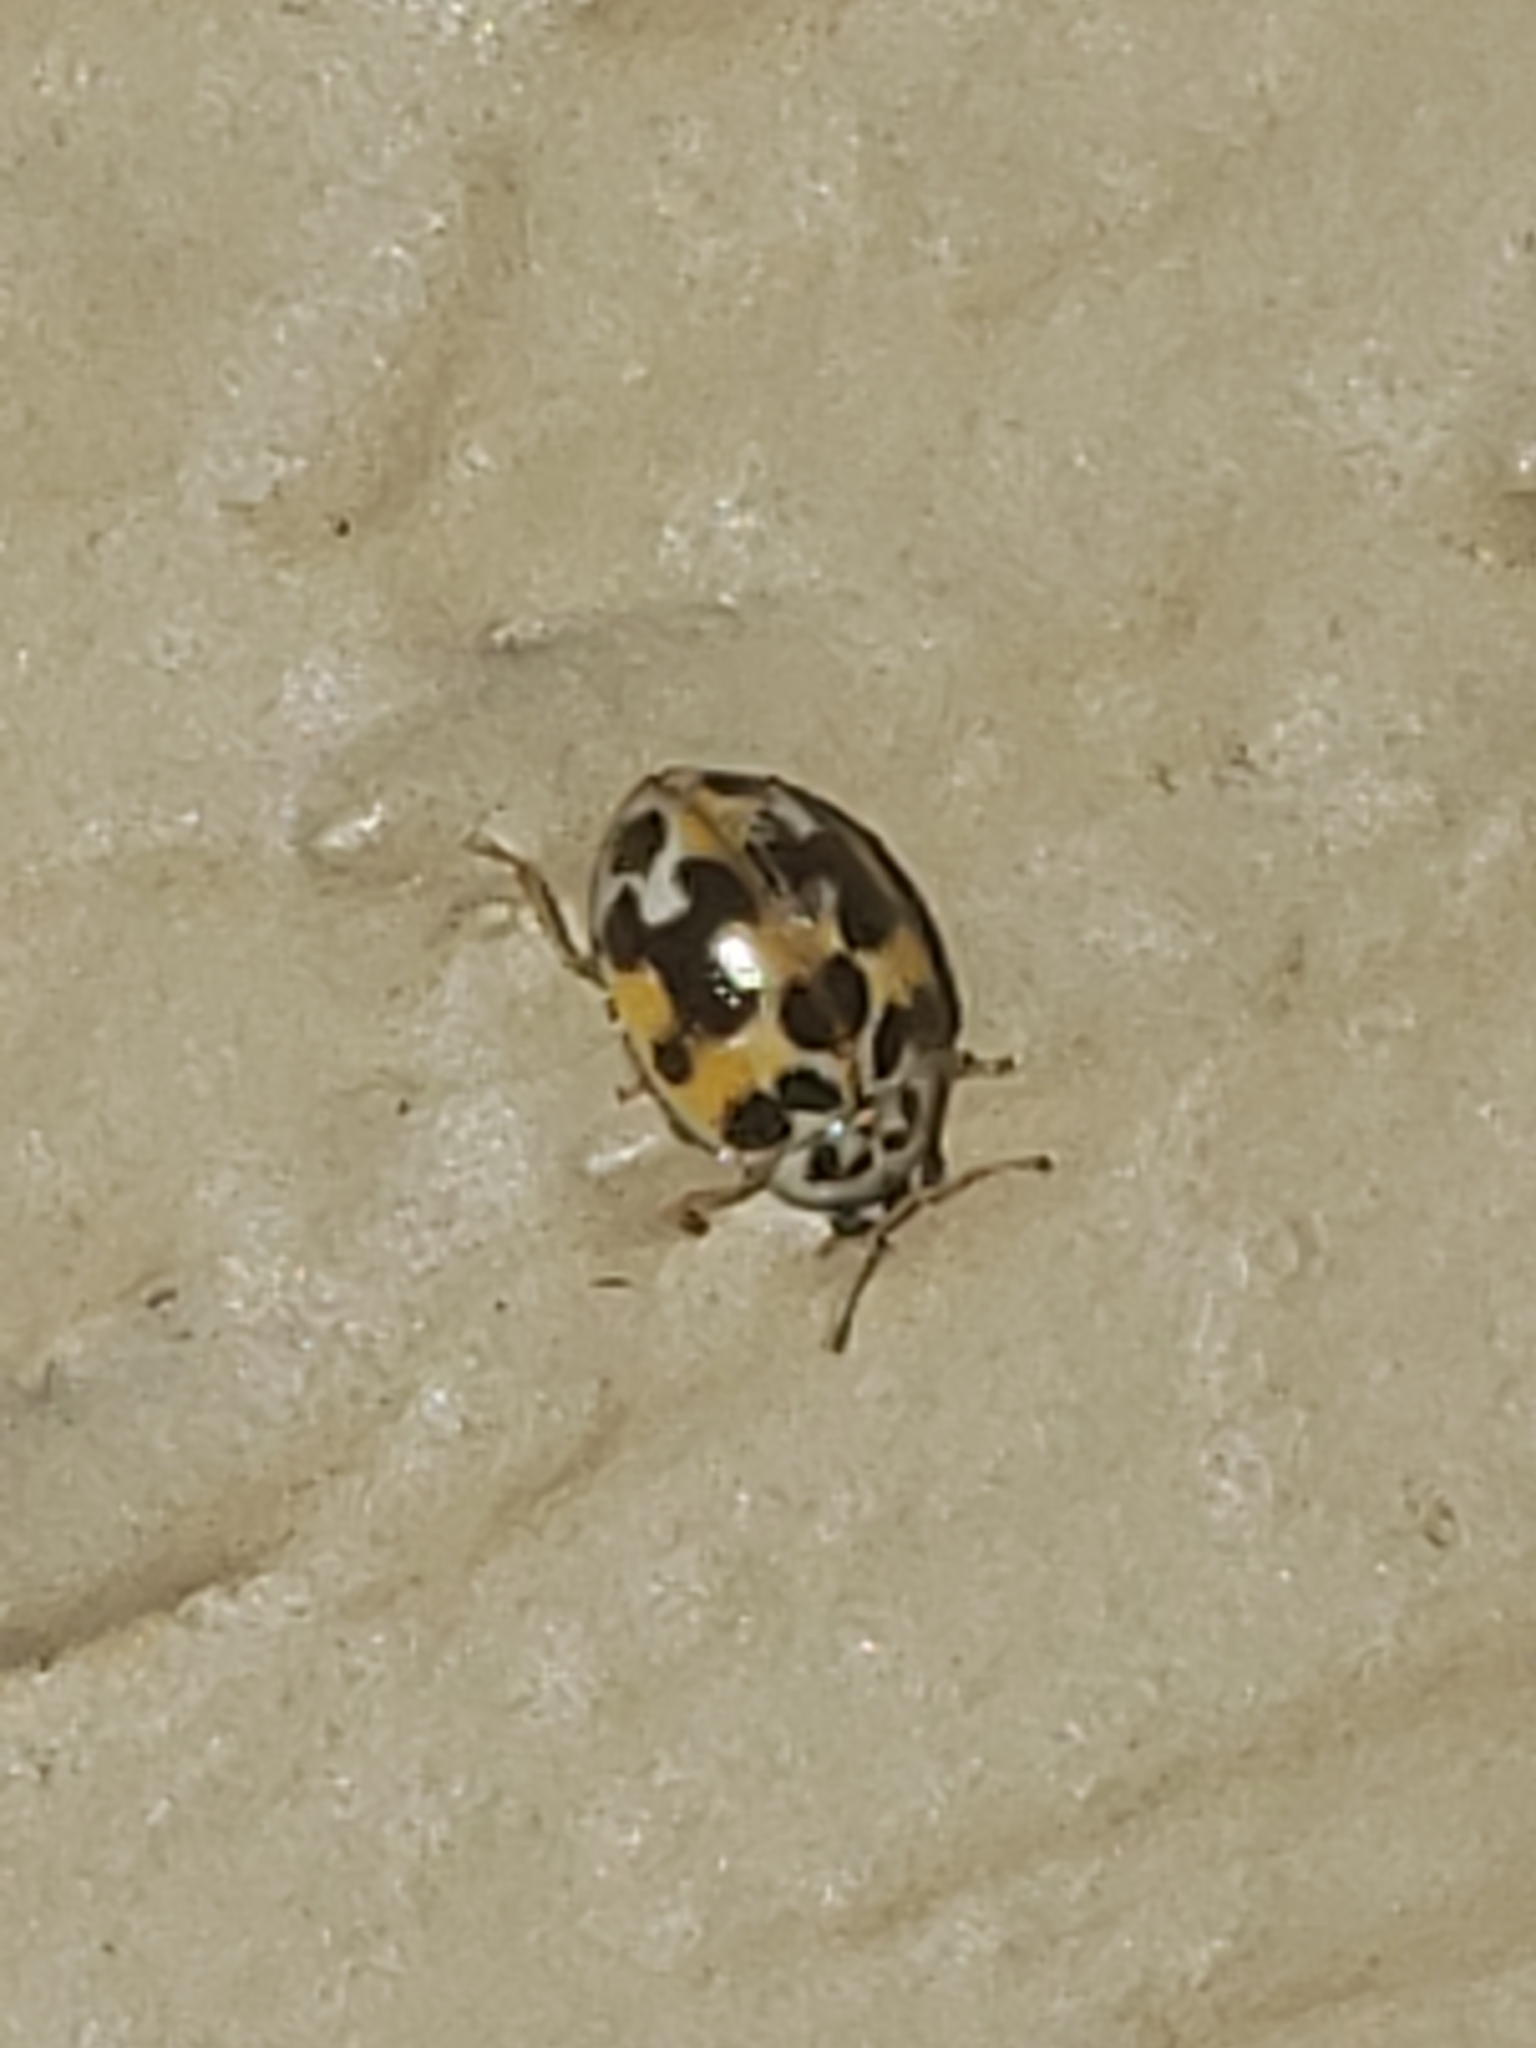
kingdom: Animalia
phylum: Arthropoda
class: Insecta
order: Coleoptera
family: Coccinellidae
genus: Psyllobora
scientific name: Psyllobora vigintimaculata
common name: Ladybird beetle
